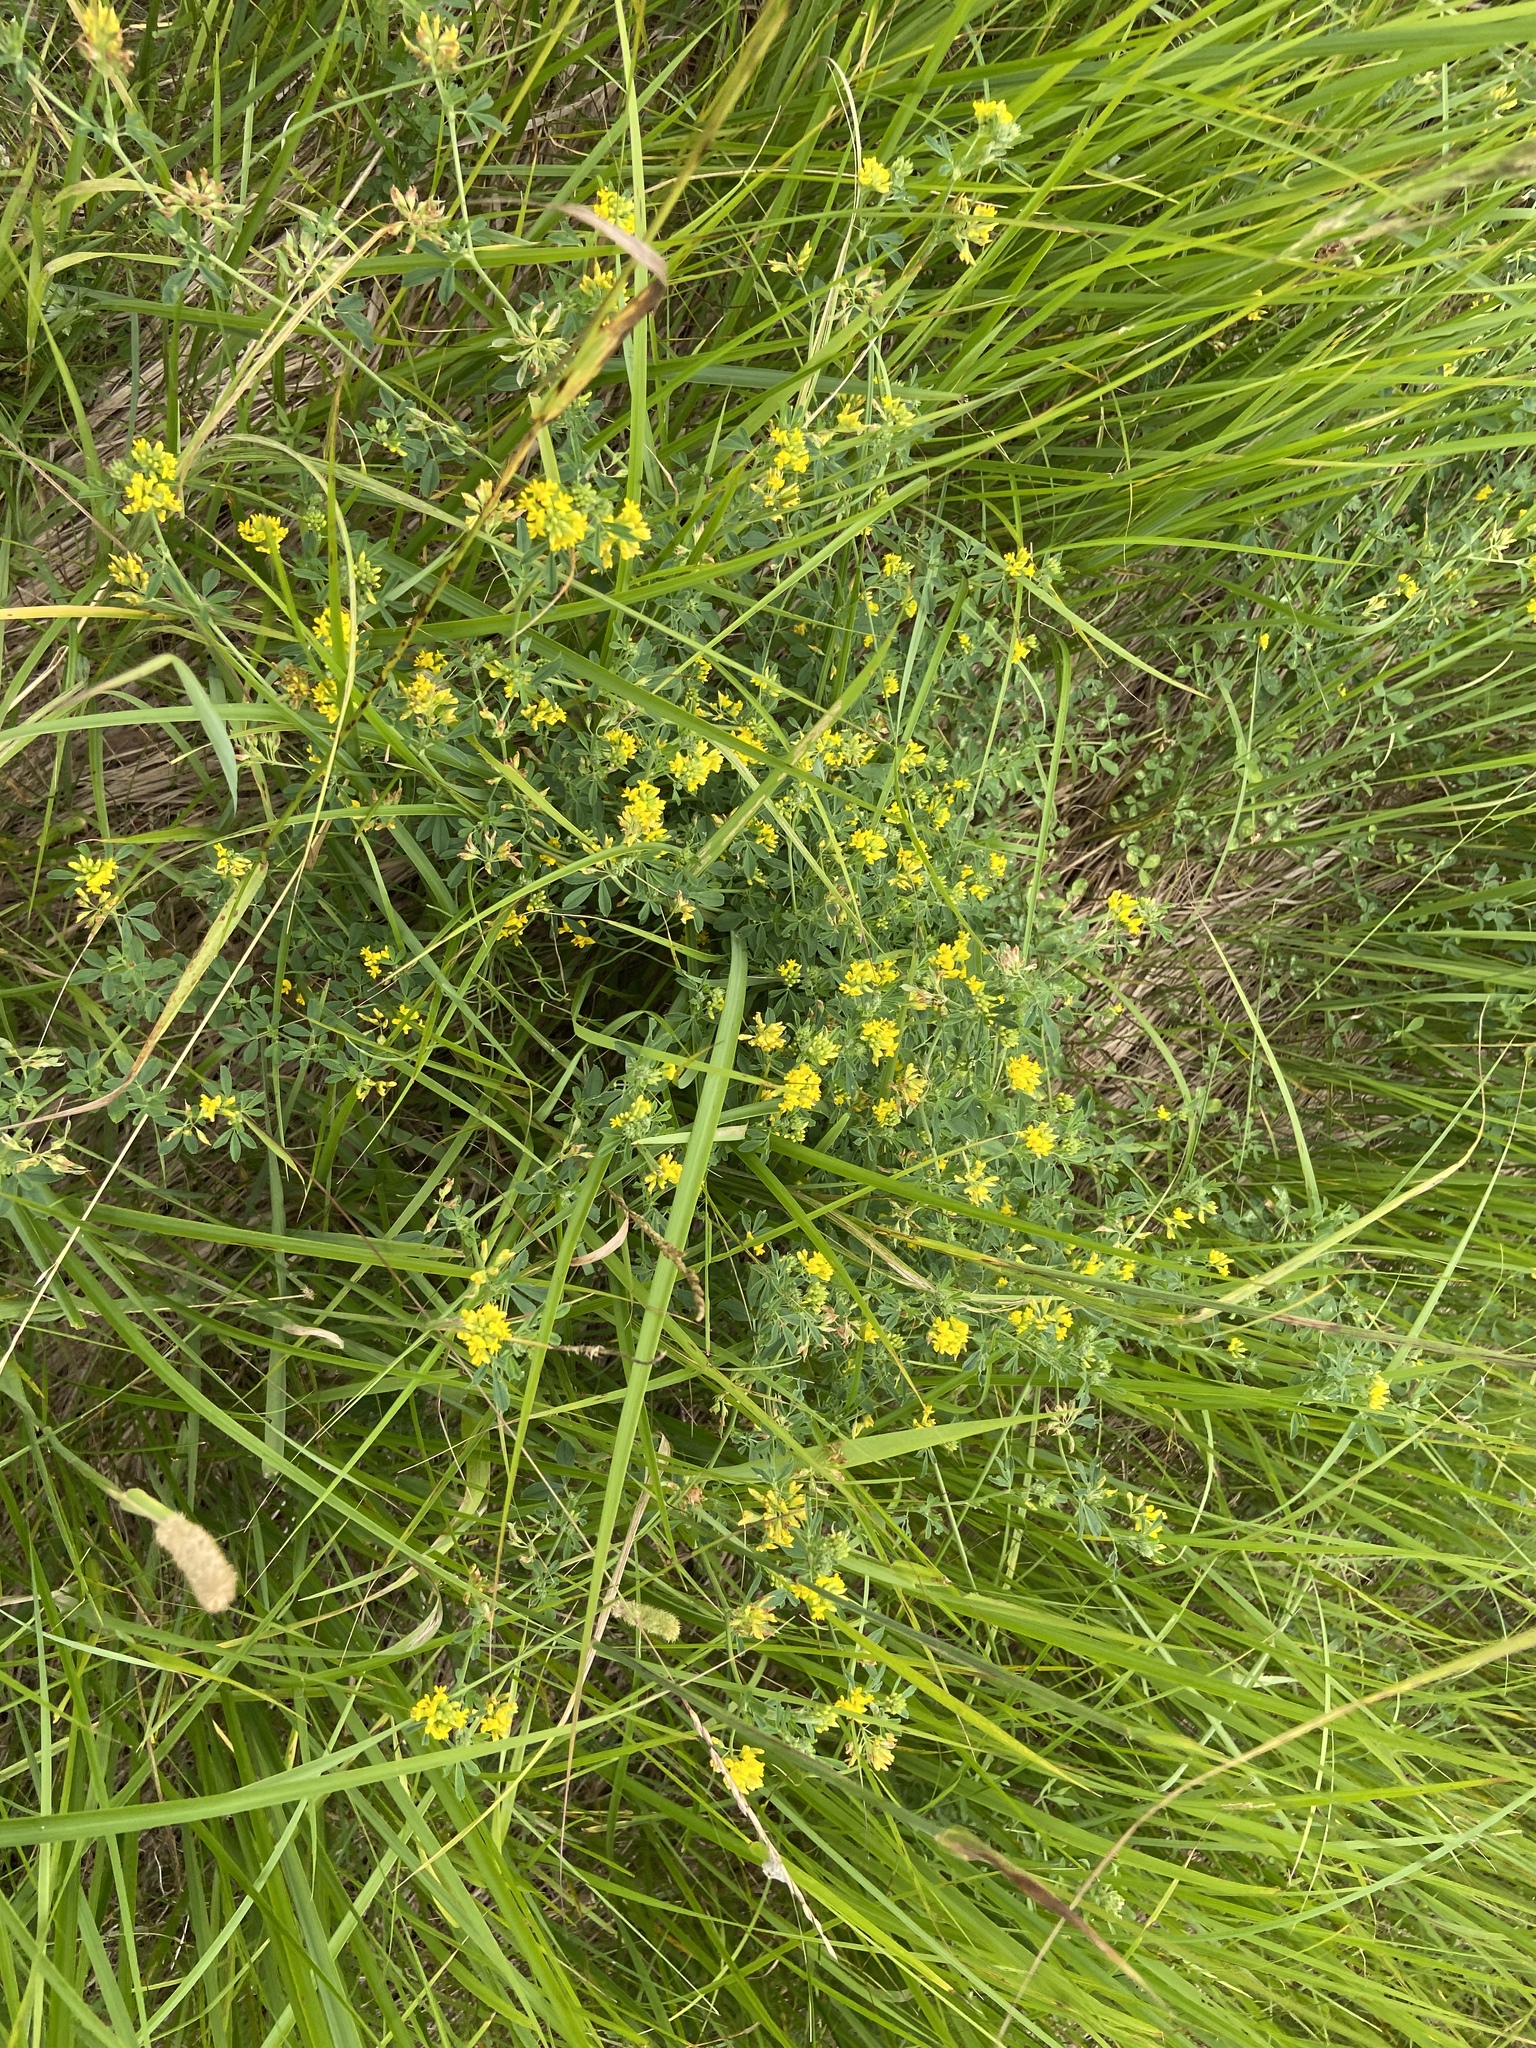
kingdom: Plantae
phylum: Tracheophyta
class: Magnoliopsida
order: Fabales
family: Fabaceae
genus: Medicago
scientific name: Medicago falcata
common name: Sickle medick
